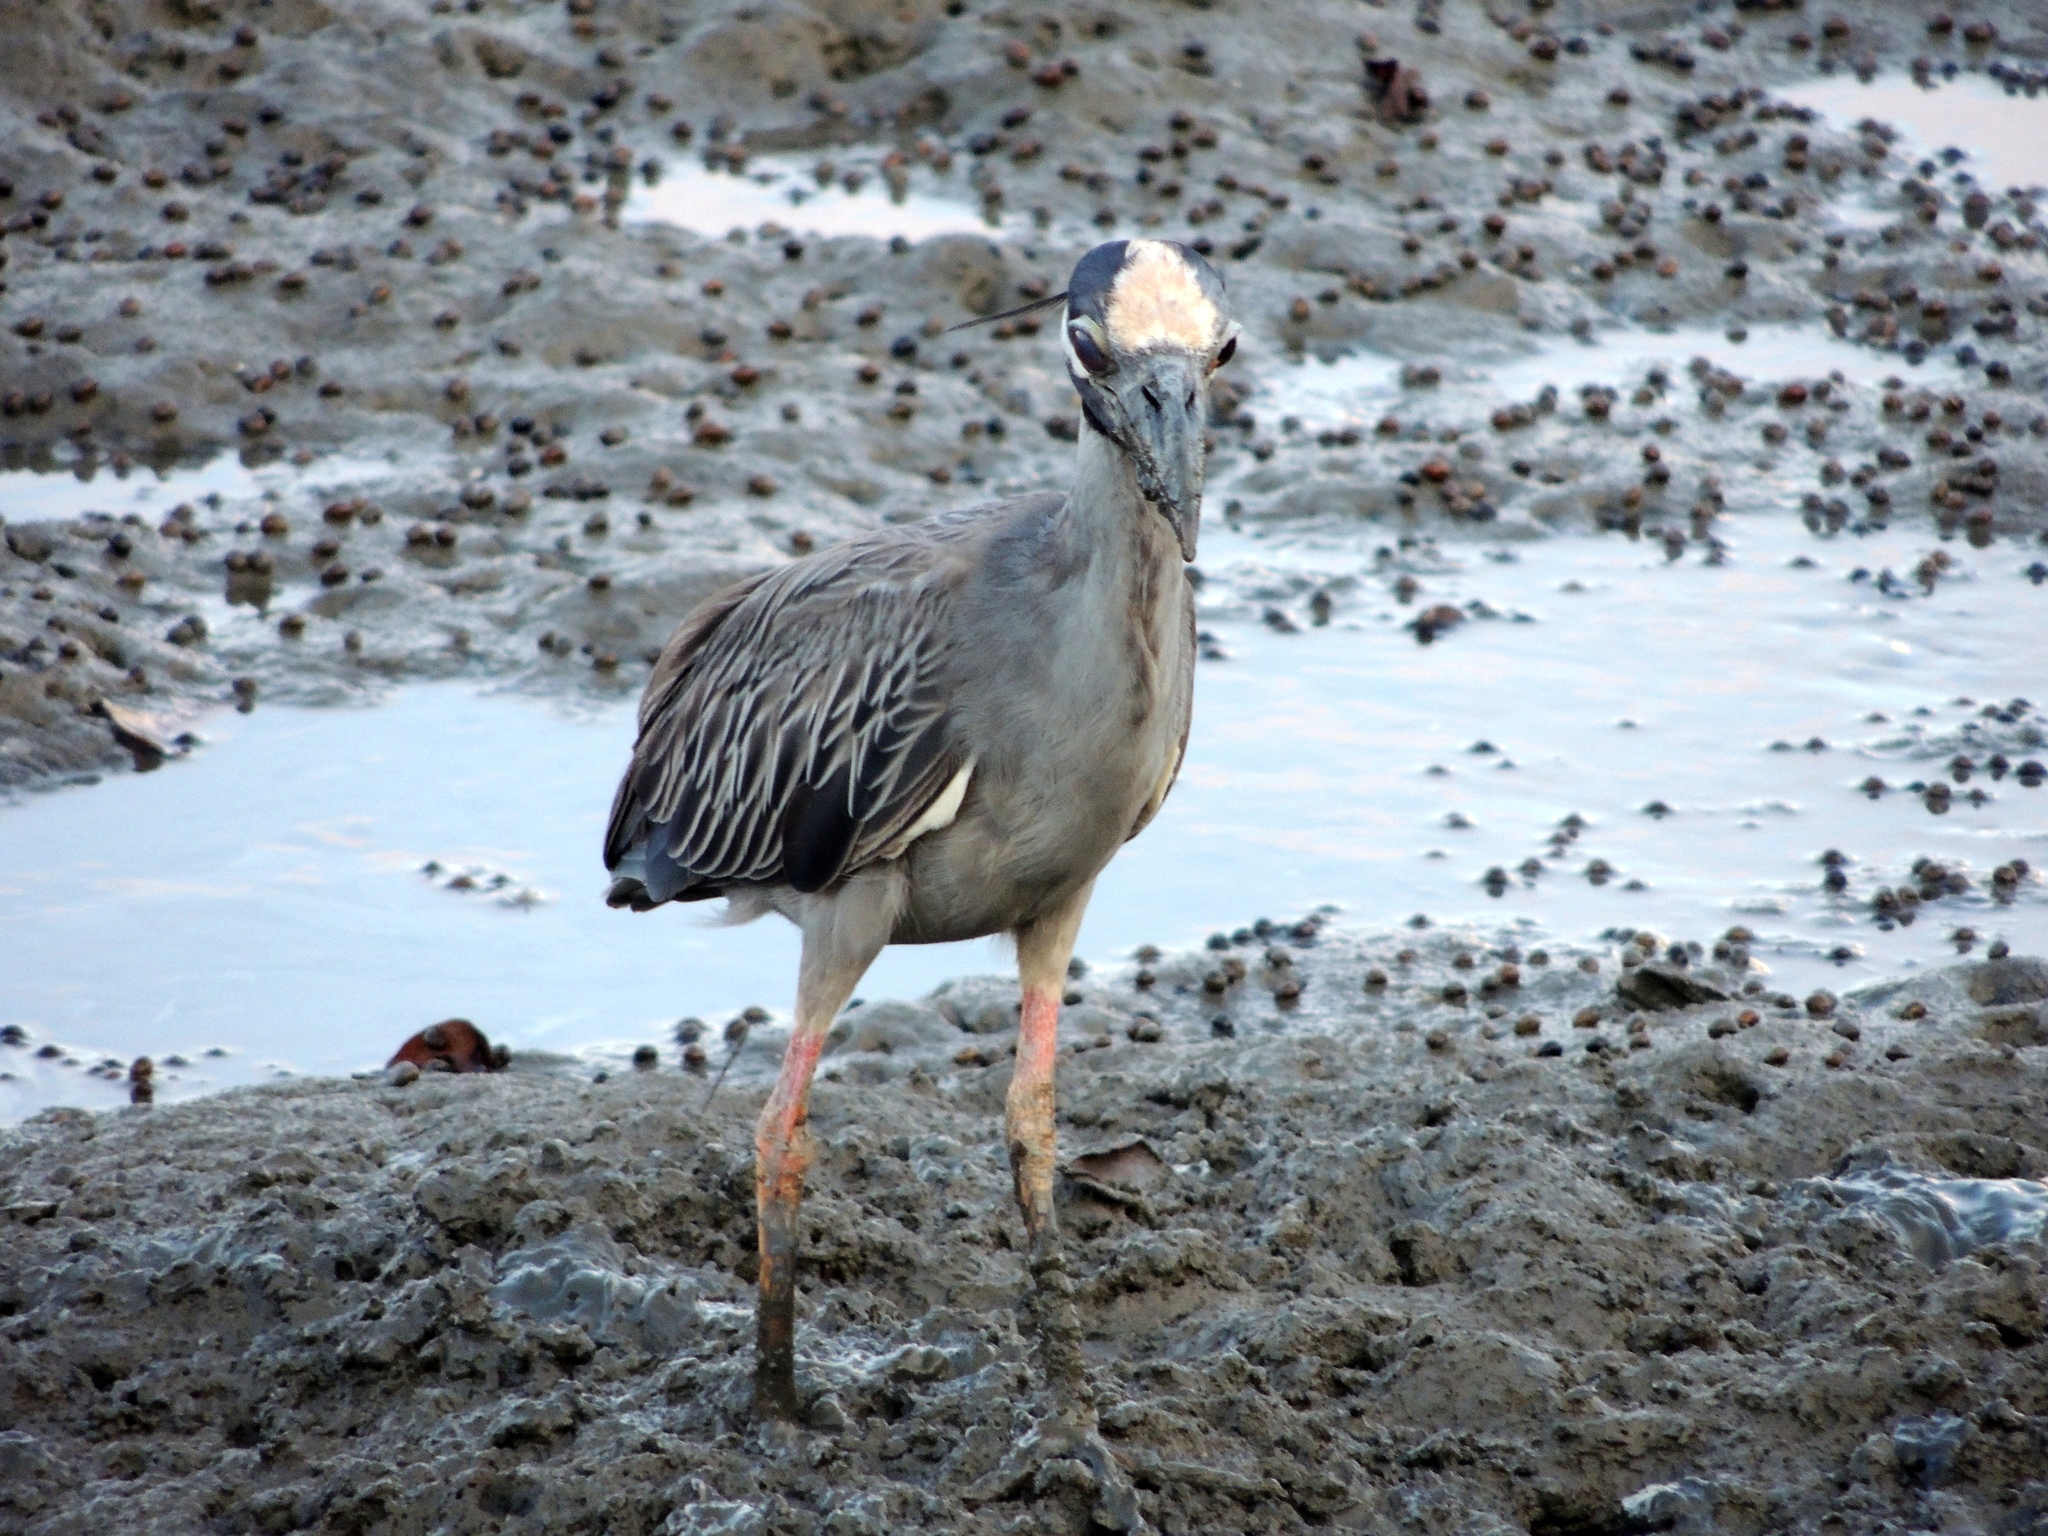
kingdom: Animalia
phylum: Chordata
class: Aves
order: Pelecaniformes
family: Ardeidae
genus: Nyctanassa
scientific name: Nyctanassa violacea
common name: Yellow-crowned night heron
